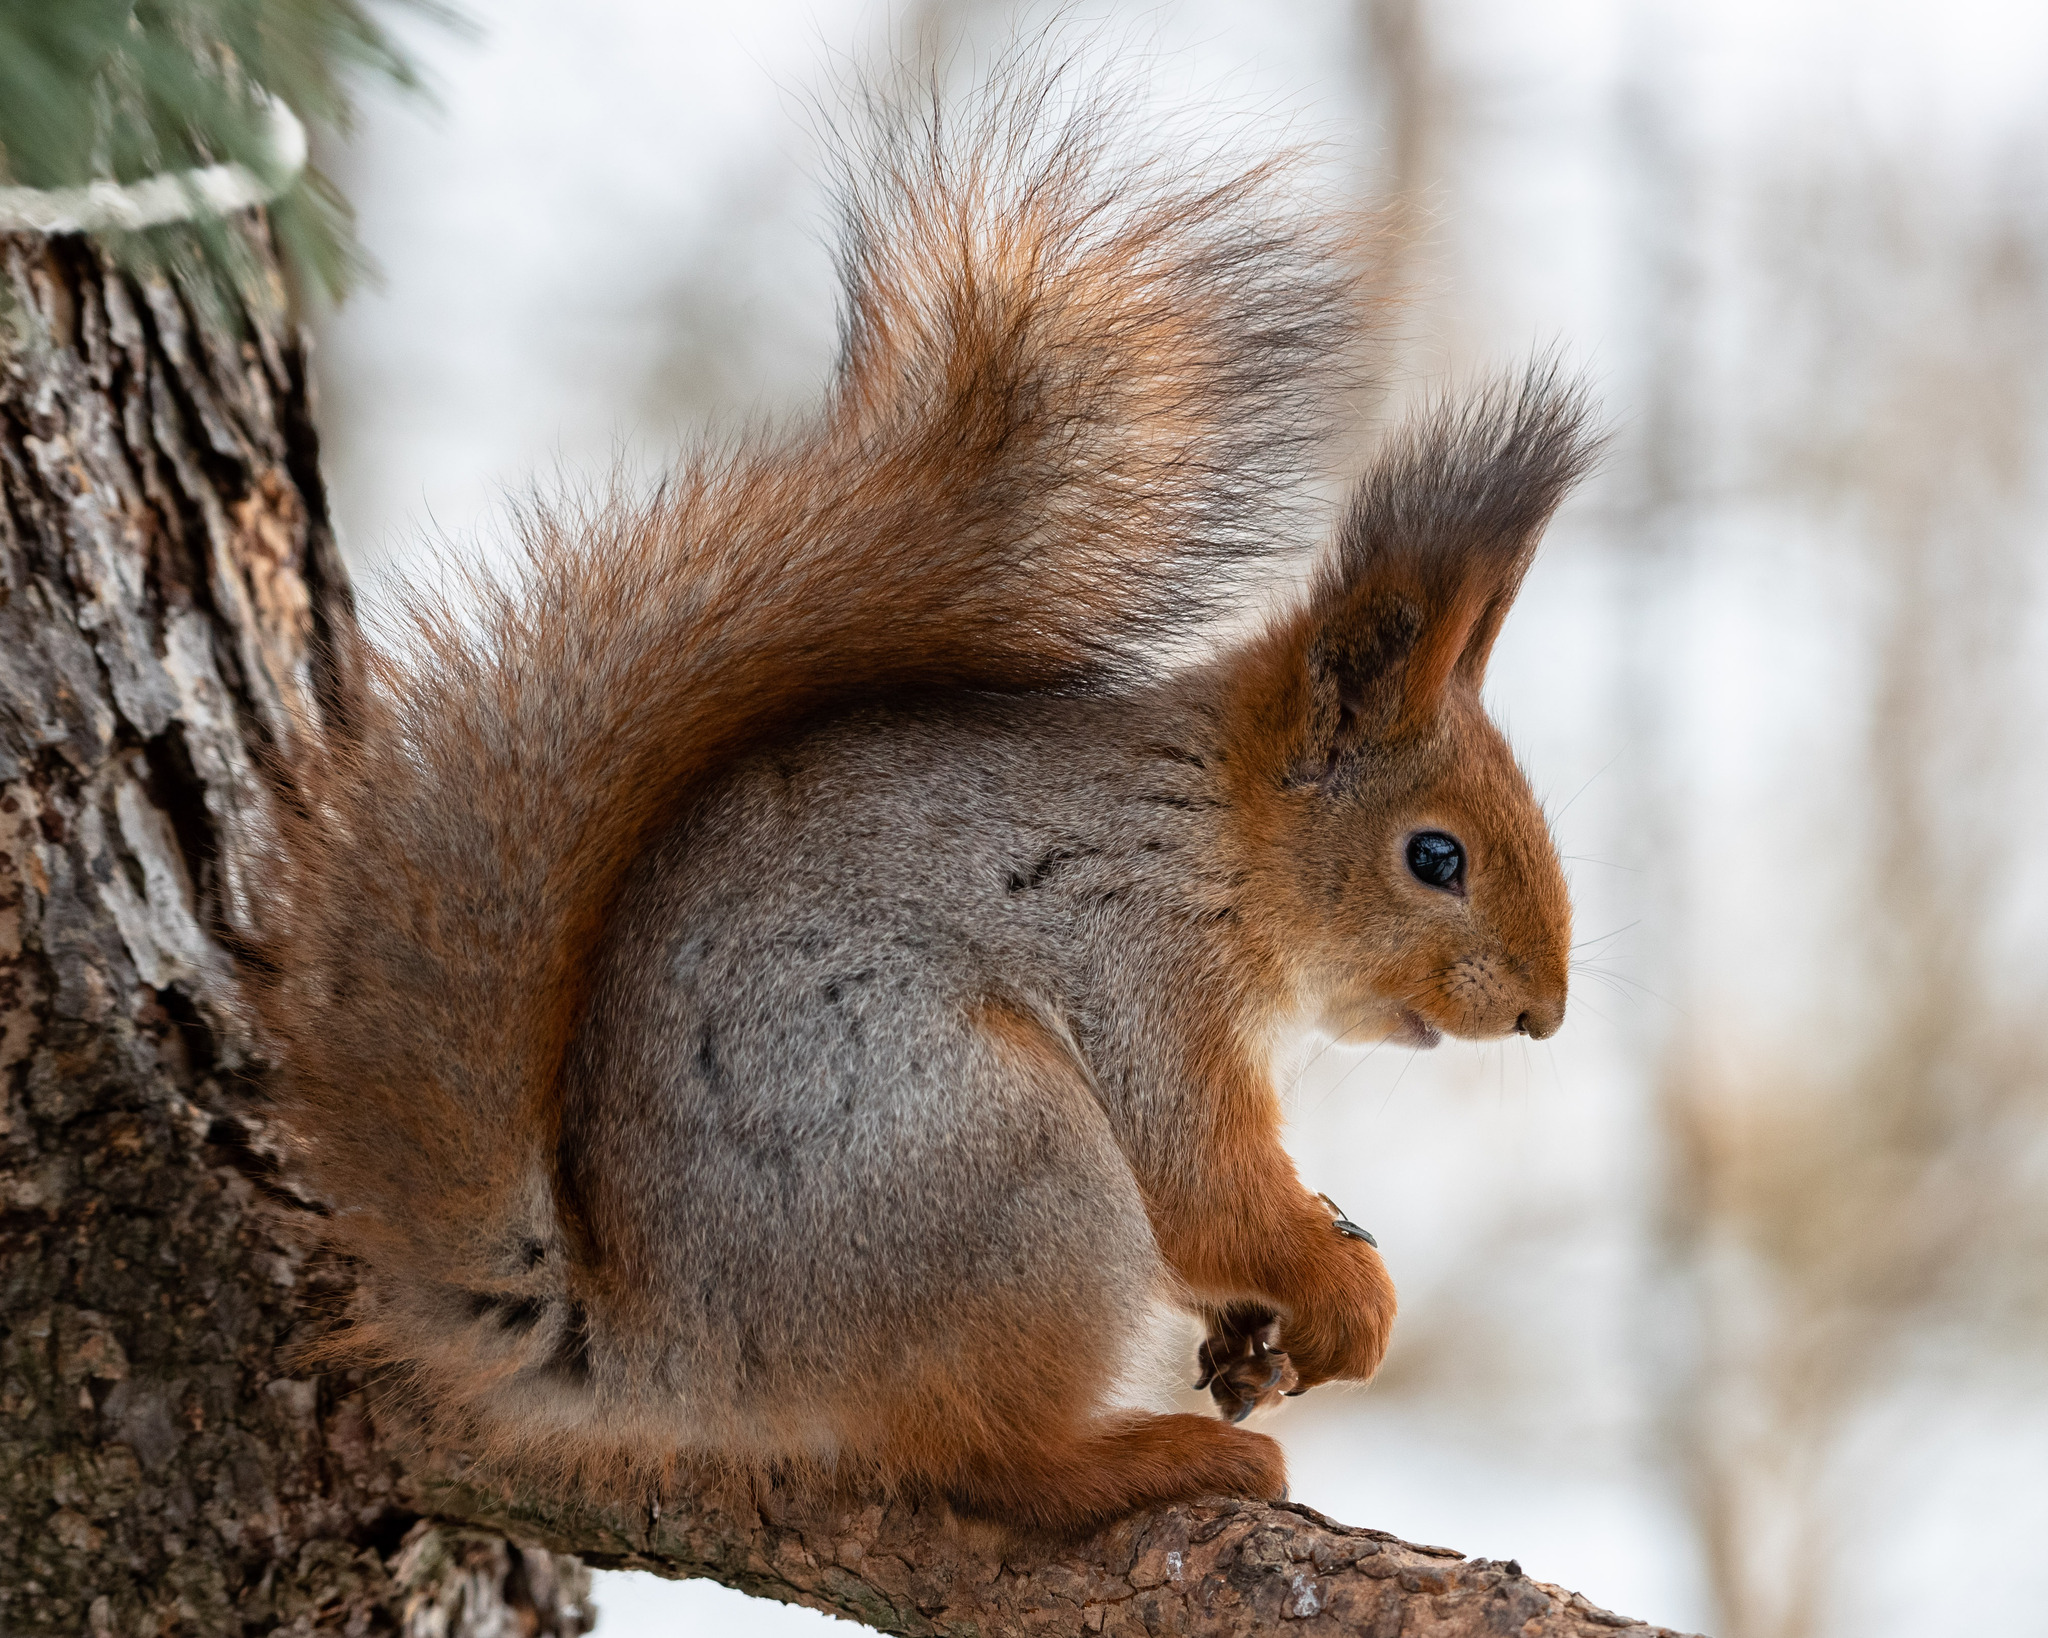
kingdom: Animalia
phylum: Chordata
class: Mammalia
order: Rodentia
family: Sciuridae
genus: Sciurus
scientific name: Sciurus vulgaris
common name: Eurasian red squirrel
